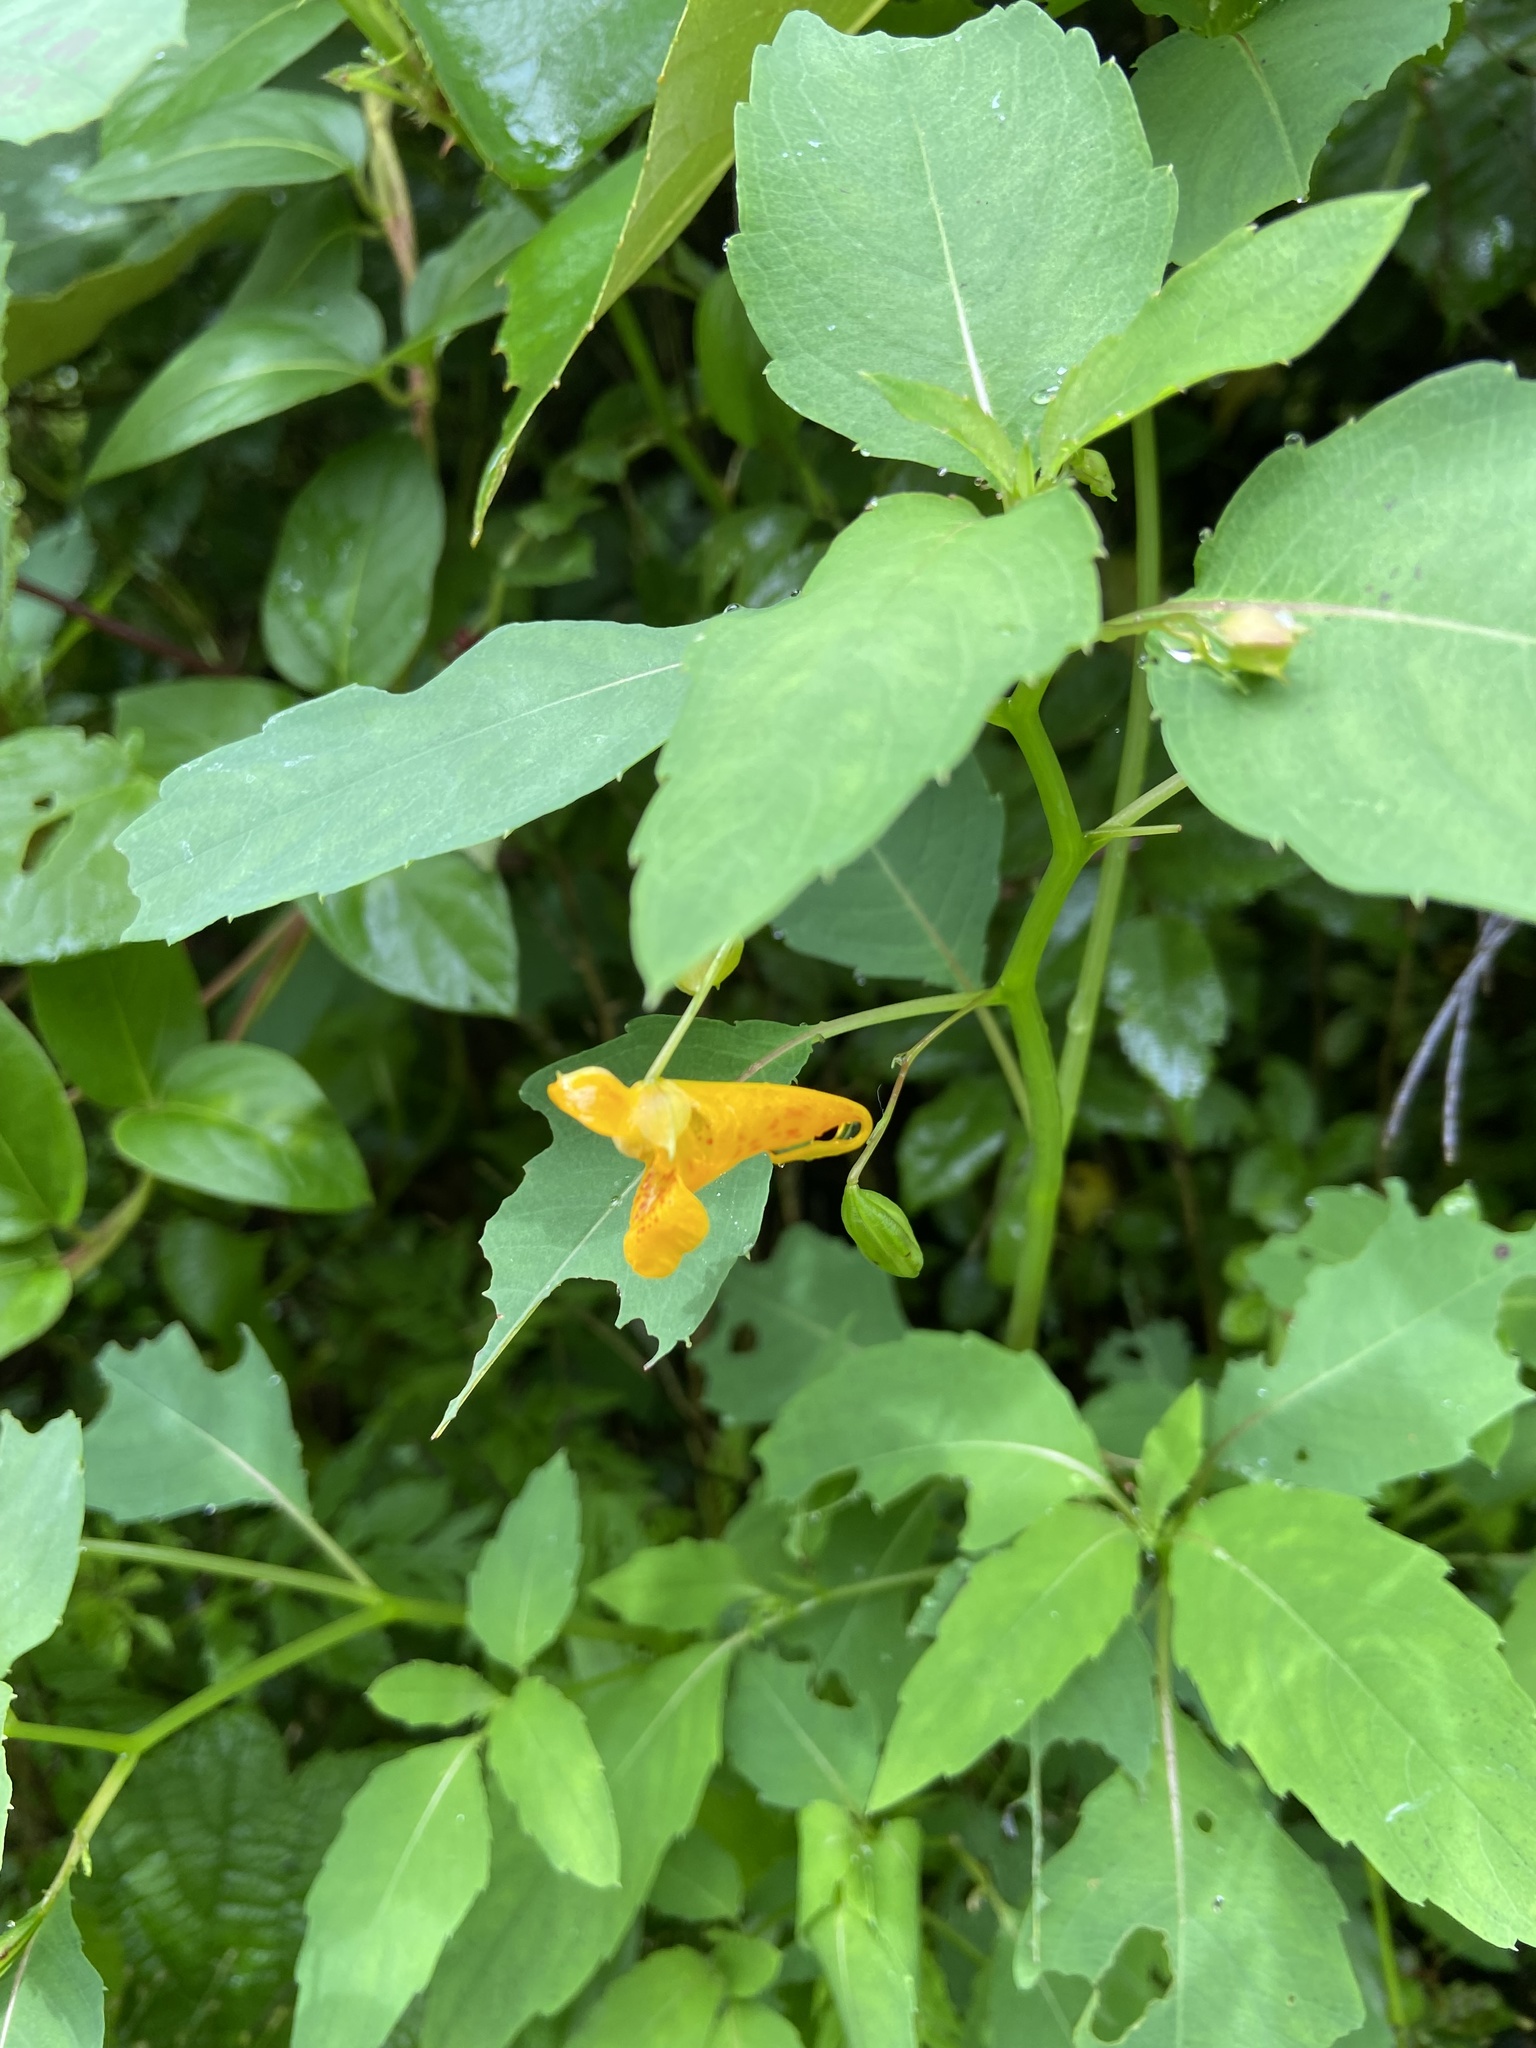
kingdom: Plantae
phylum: Tracheophyta
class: Magnoliopsida
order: Ericales
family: Balsaminaceae
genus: Impatiens
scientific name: Impatiens capensis
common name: Orange balsam
